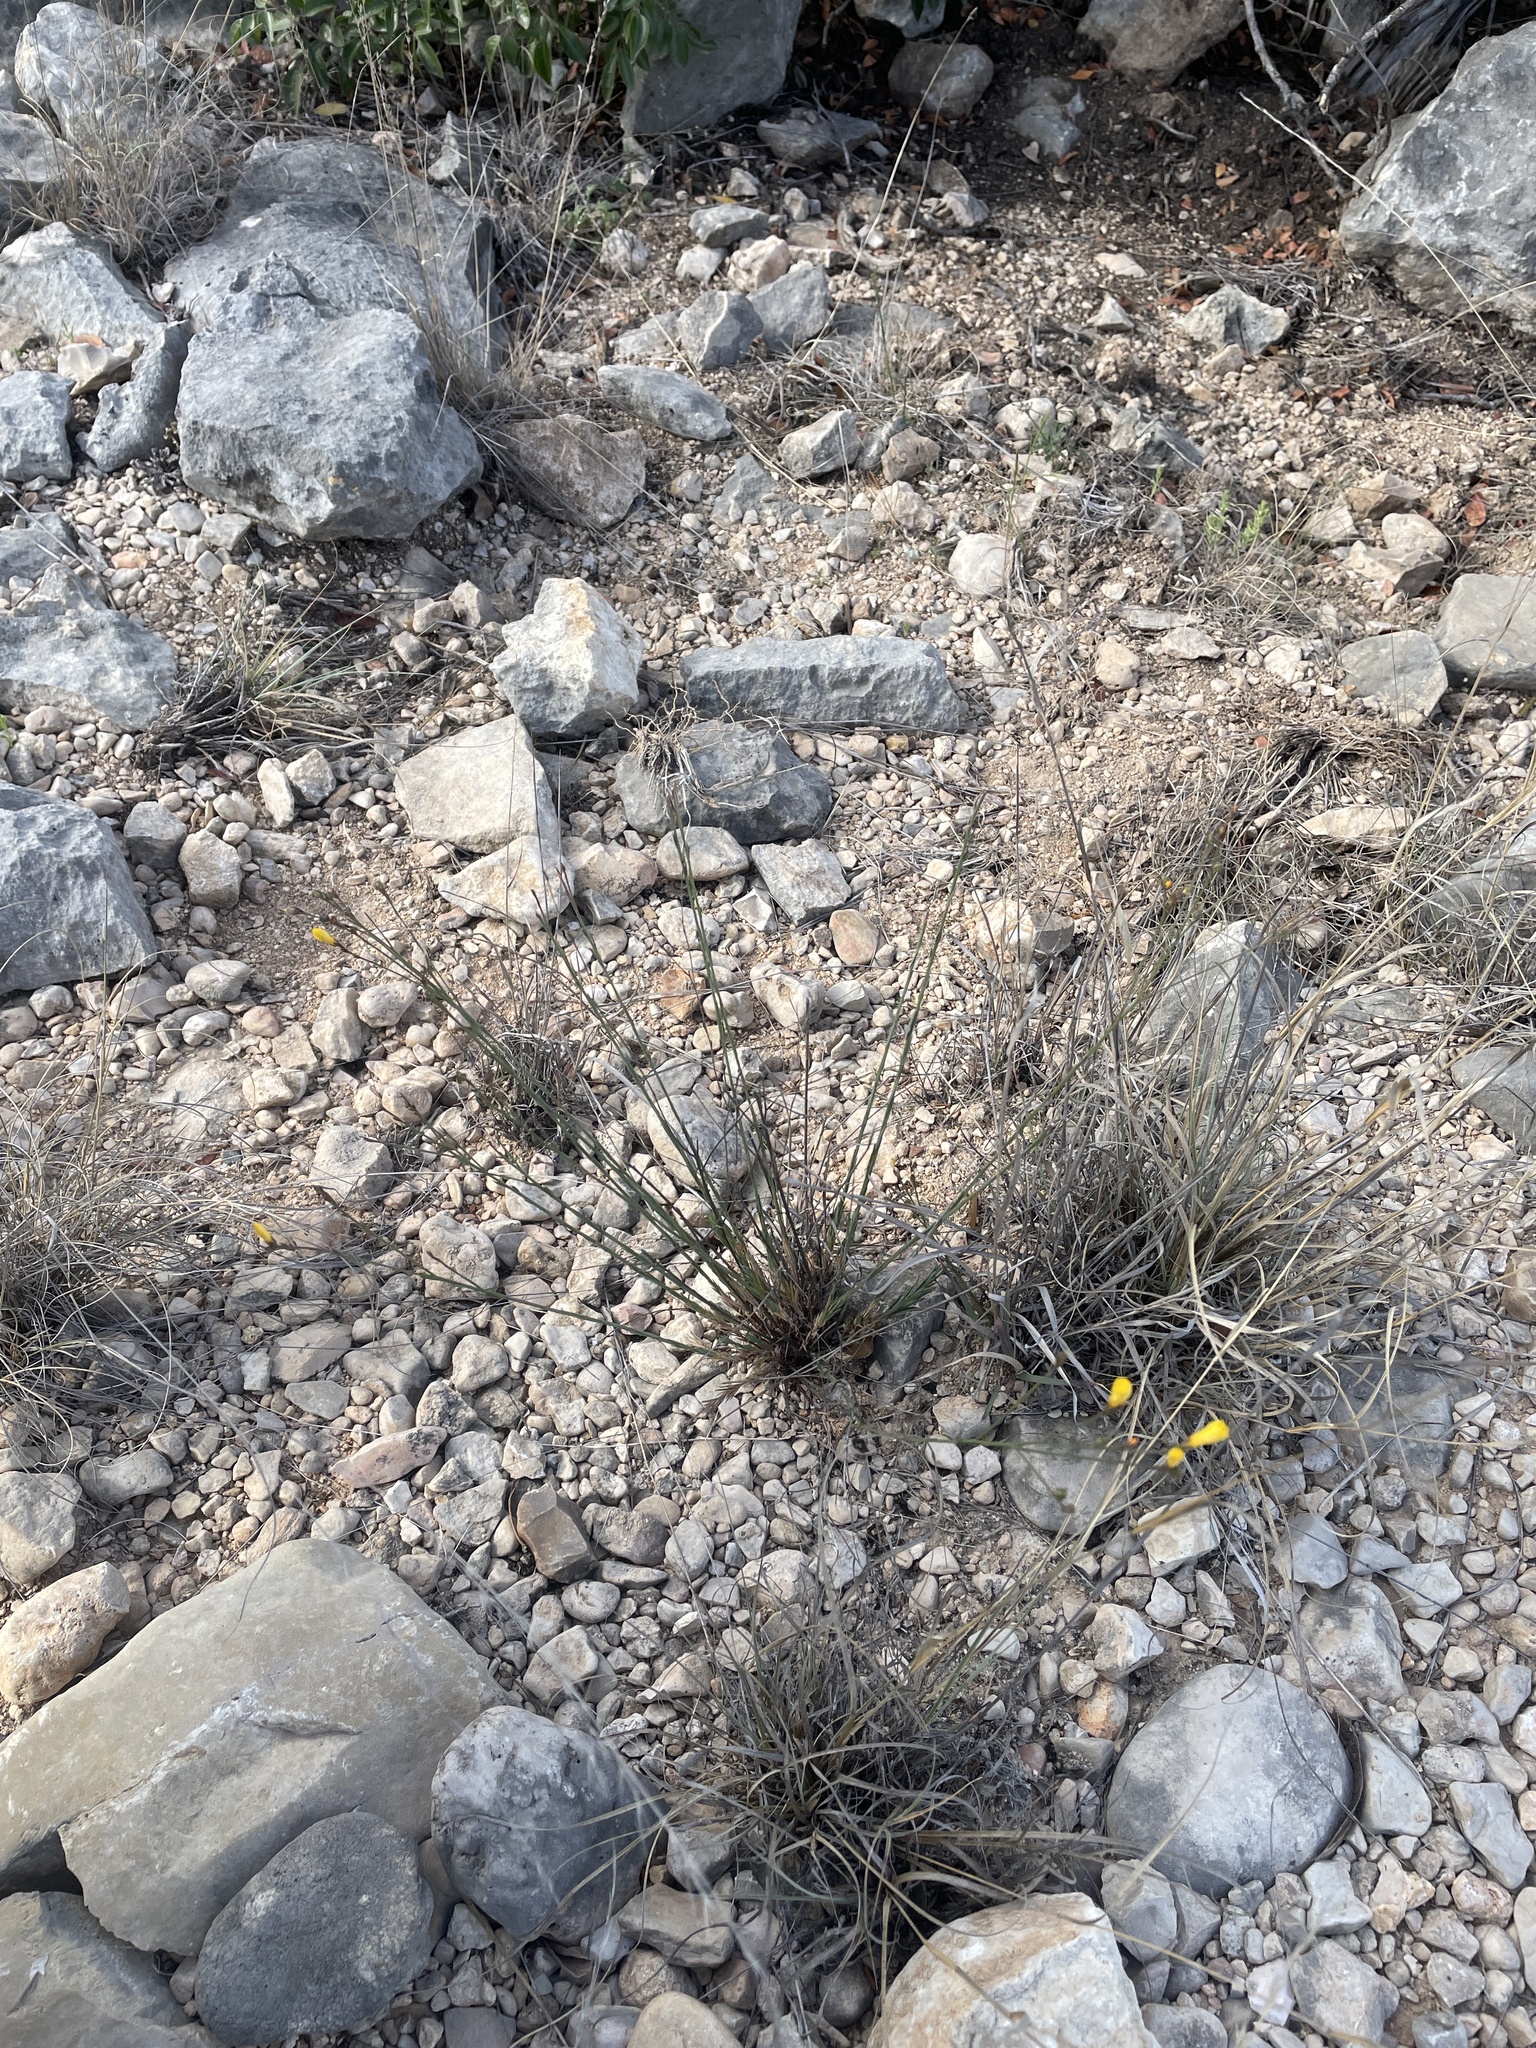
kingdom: Plantae
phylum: Tracheophyta
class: Magnoliopsida
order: Malpighiales
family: Linaceae
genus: Linum
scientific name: Linum rupestre
